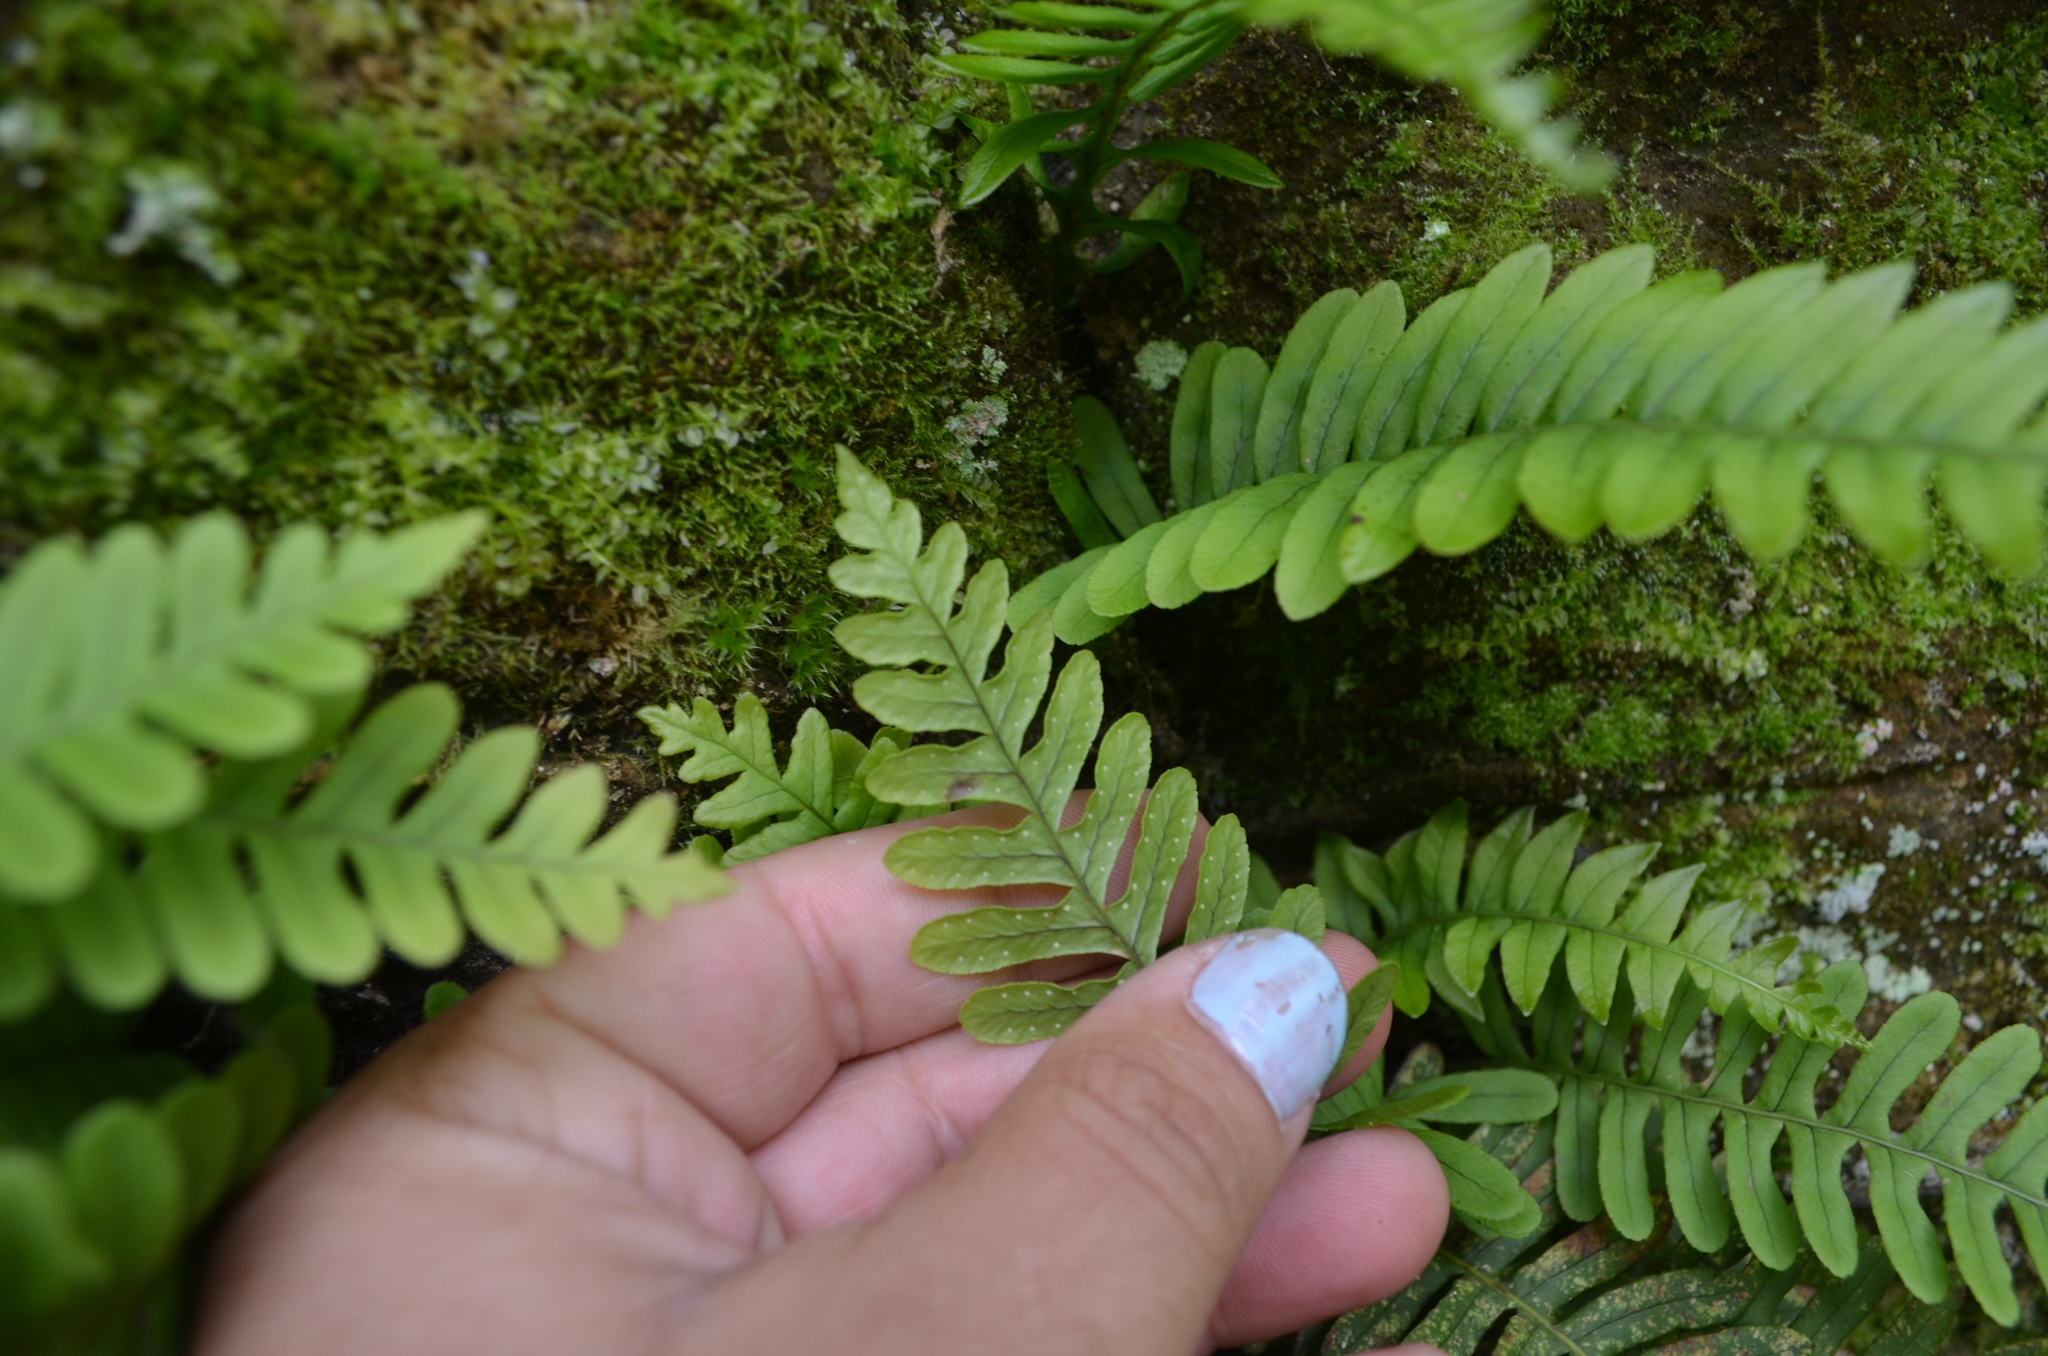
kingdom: Plantae
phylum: Tracheophyta
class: Polypodiopsida
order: Polypodiales
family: Polypodiaceae
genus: Polypodium
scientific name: Polypodium virginianum
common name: American wall fern
